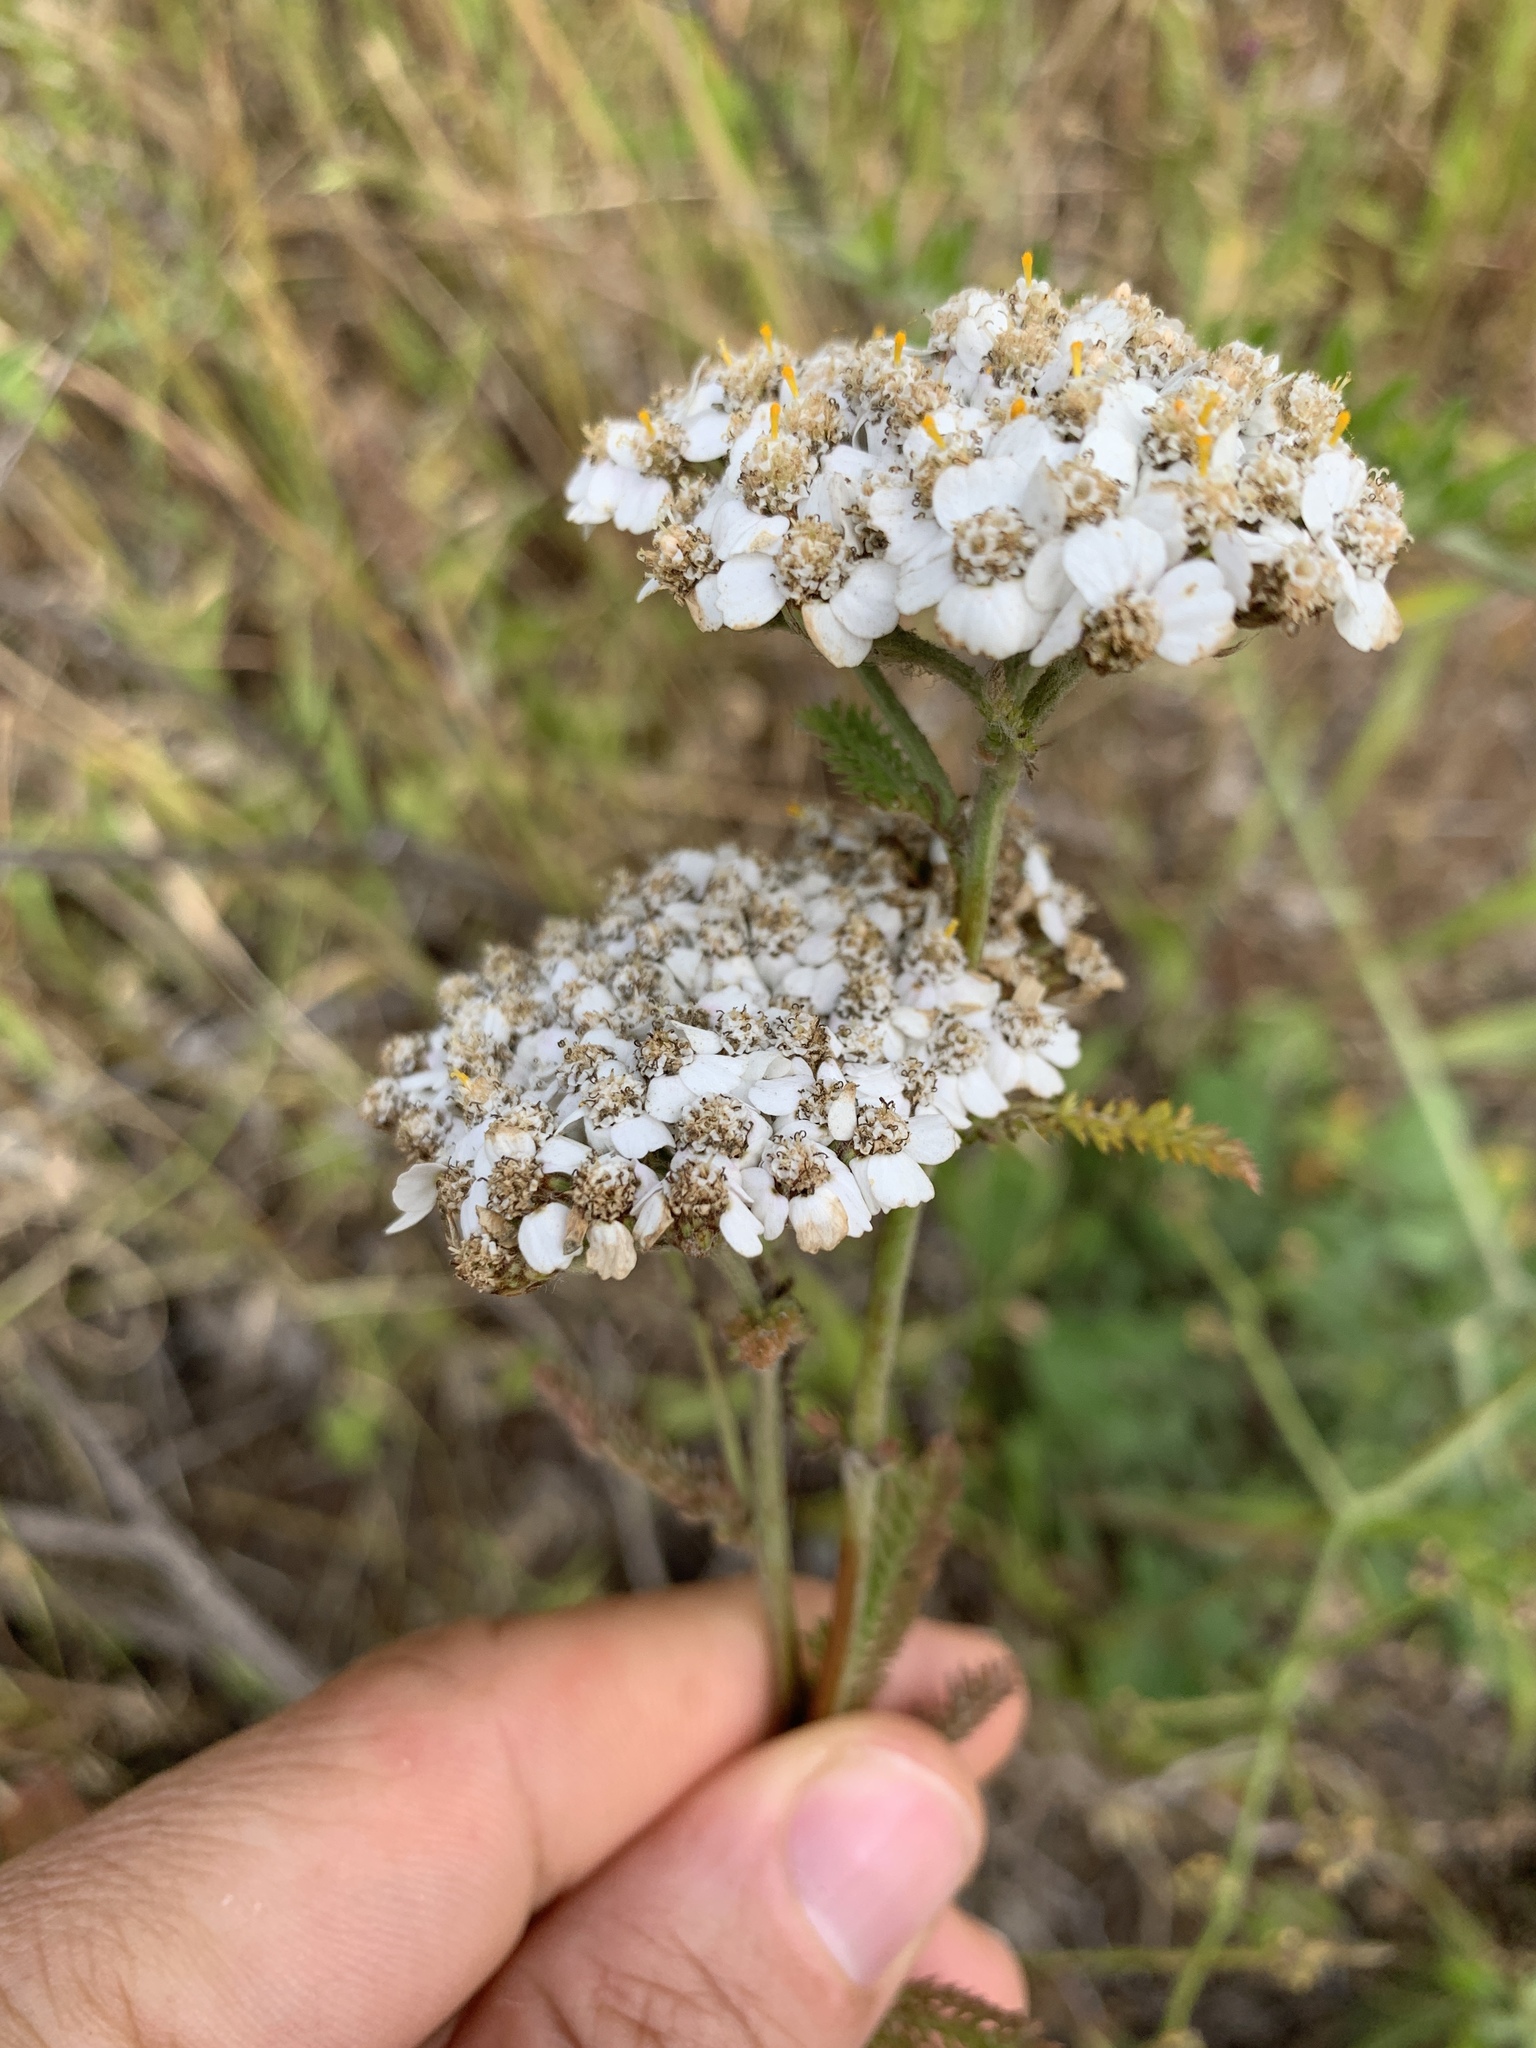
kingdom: Plantae
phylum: Tracheophyta
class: Magnoliopsida
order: Asterales
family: Asteraceae
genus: Achillea
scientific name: Achillea millefolium
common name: Yarrow
